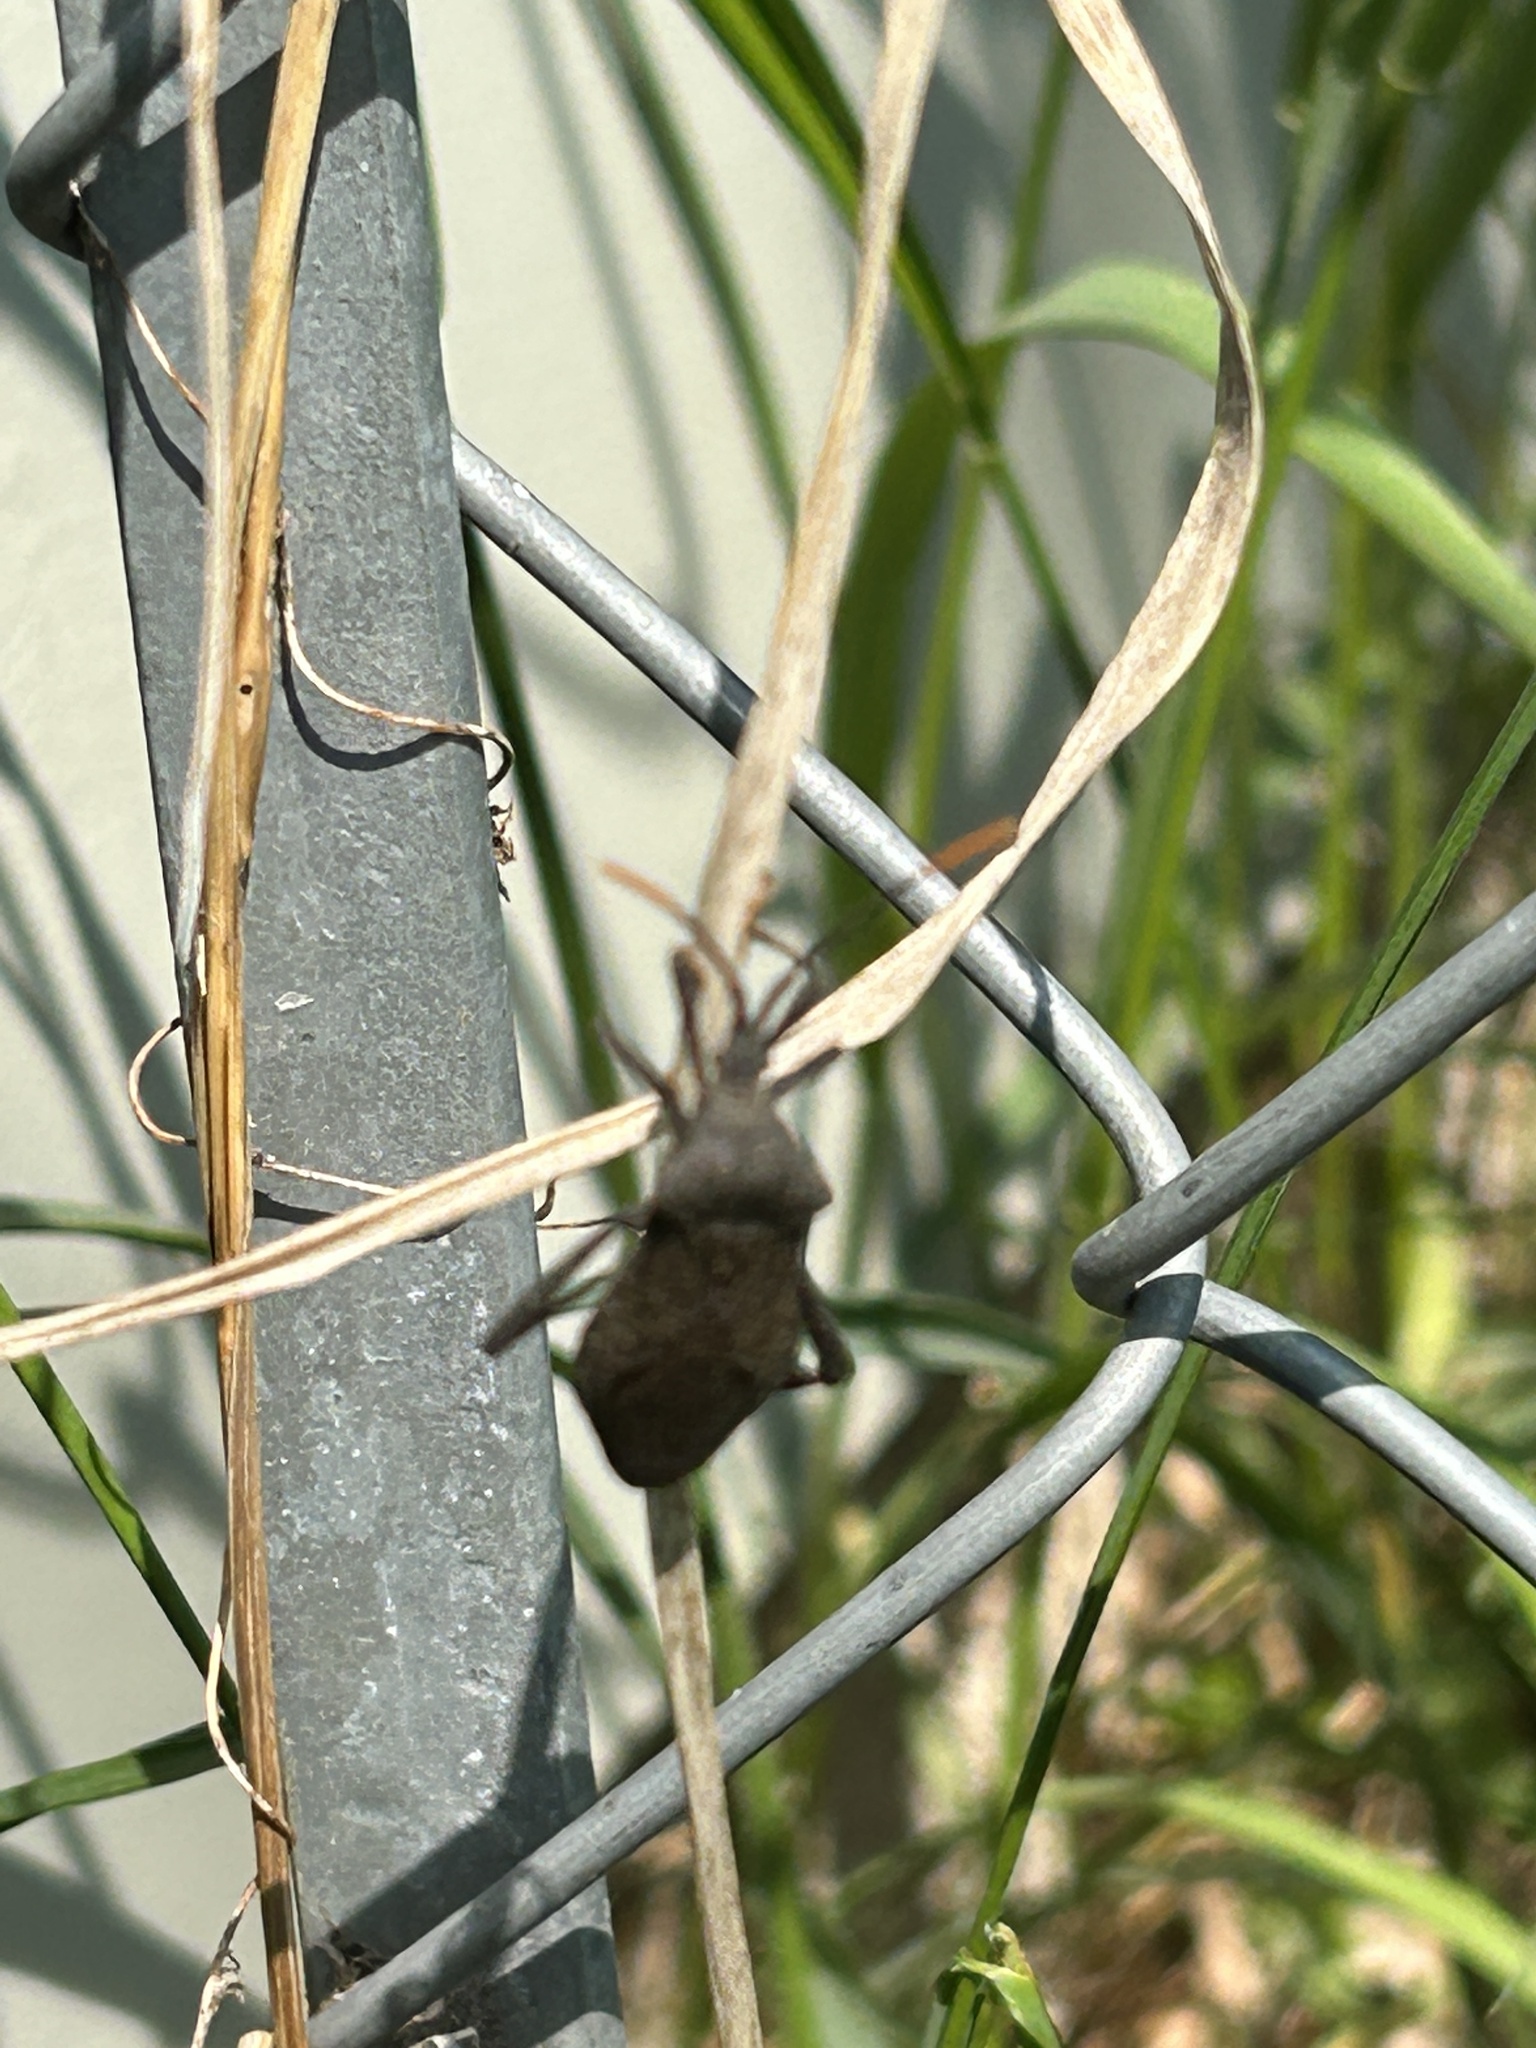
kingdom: Animalia
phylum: Arthropoda
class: Insecta
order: Hemiptera
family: Coreidae
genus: Acanthocephala
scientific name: Acanthocephala terminalis
